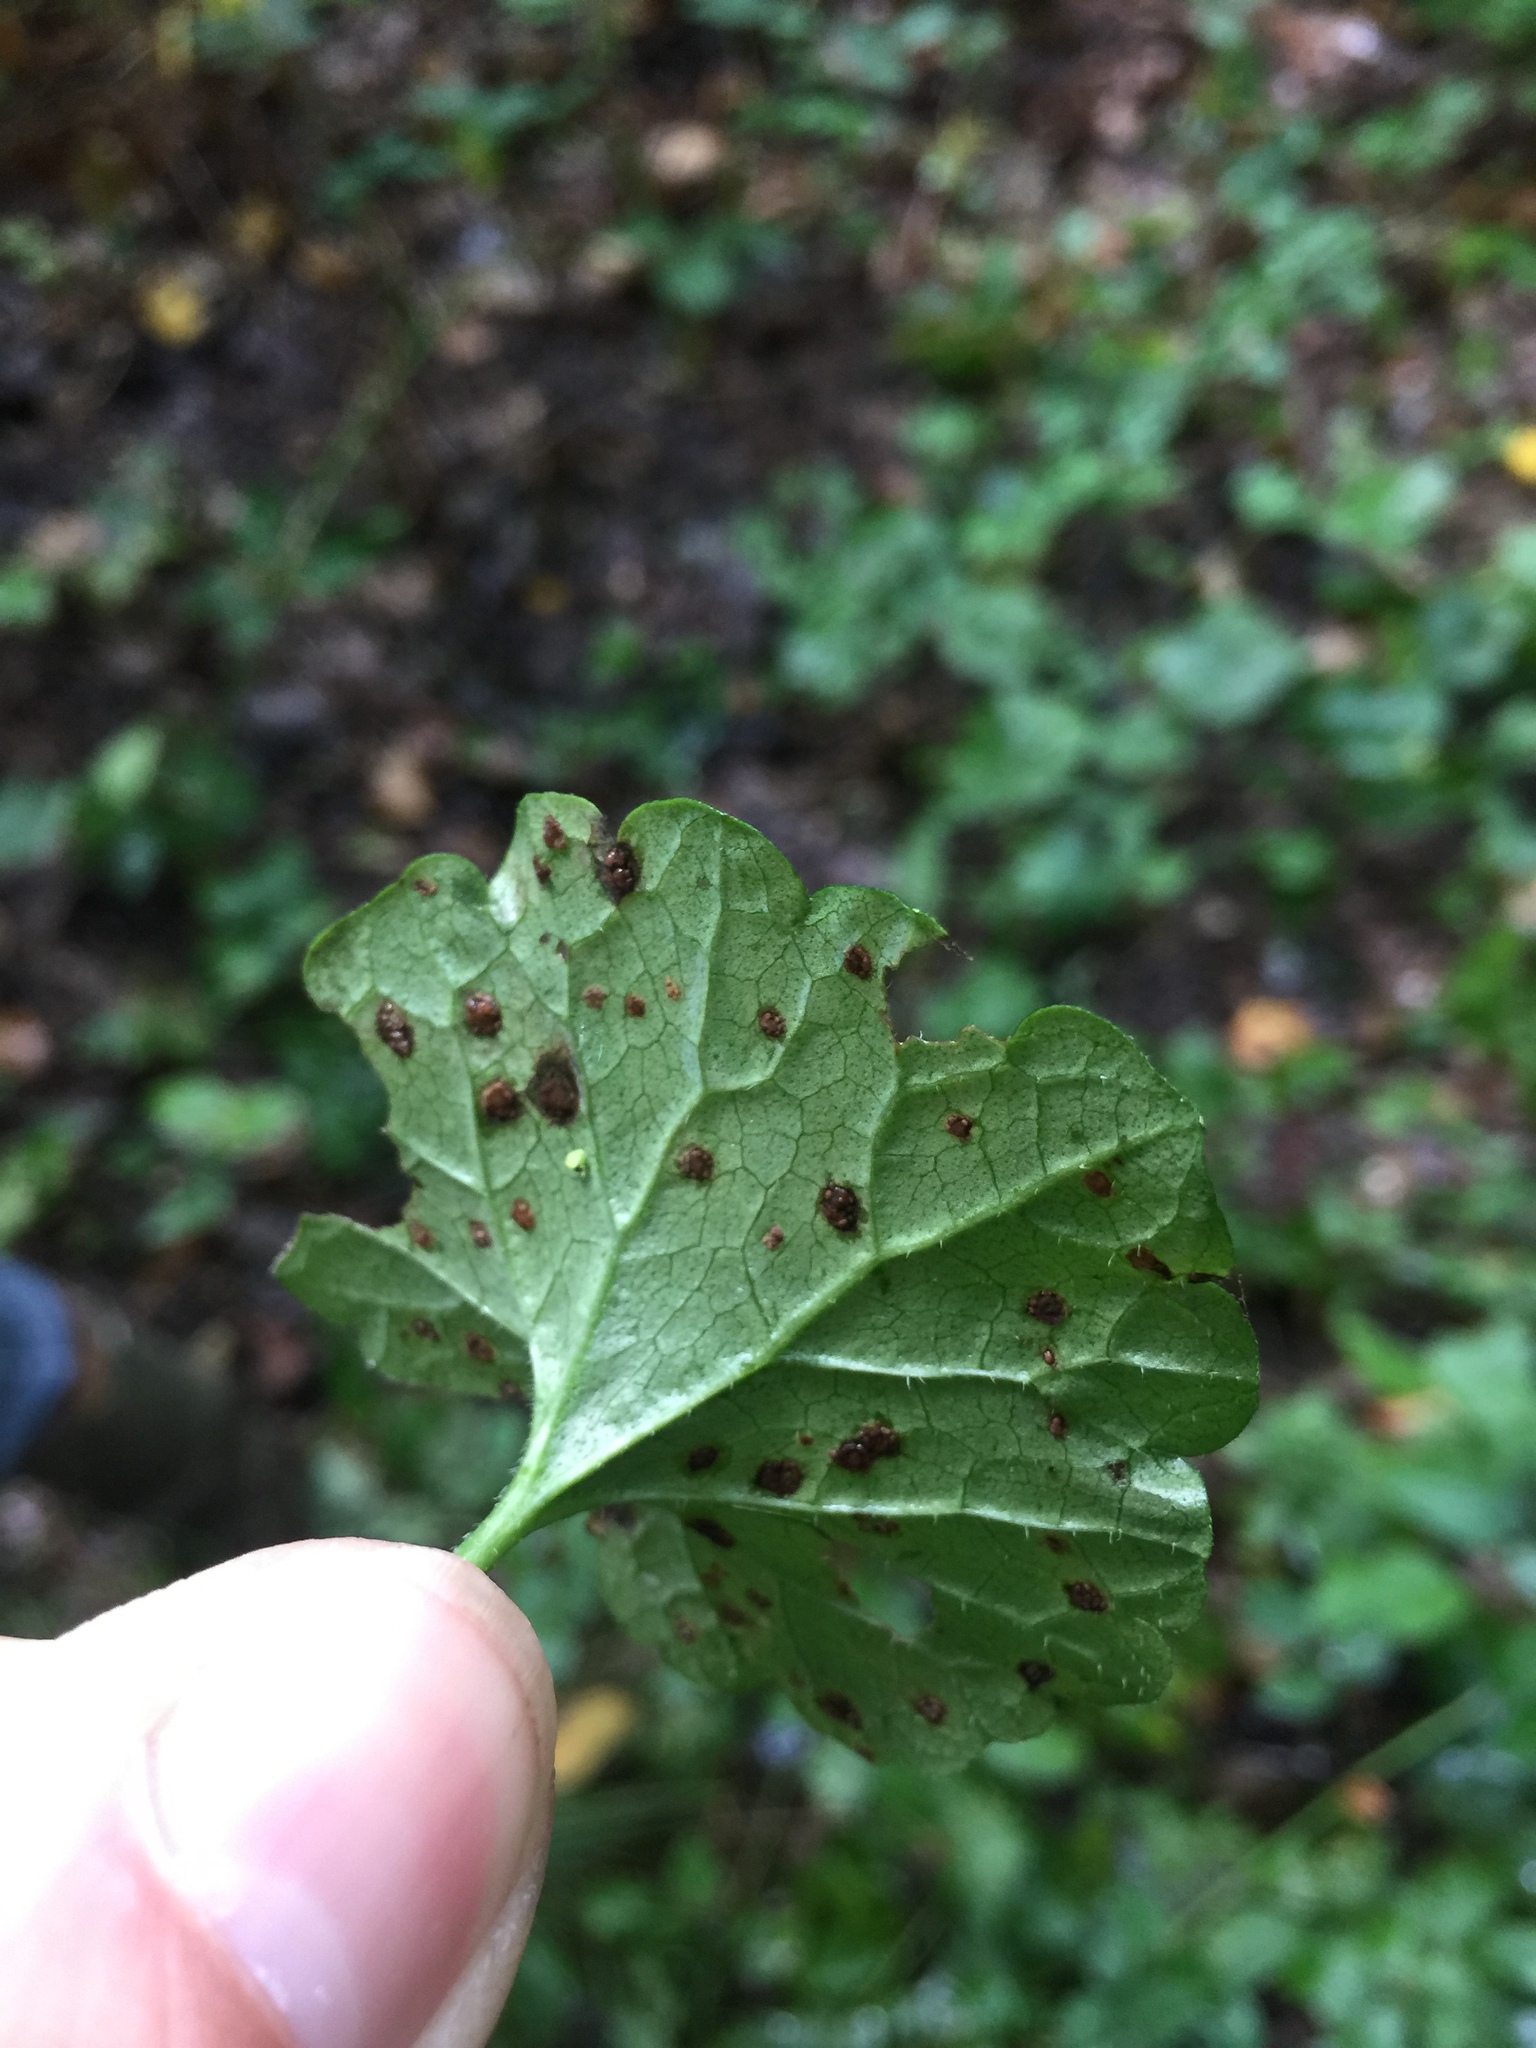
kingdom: Fungi
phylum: Basidiomycota
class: Pucciniomycetes
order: Pucciniales
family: Pucciniaceae
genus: Puccinia
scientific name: Puccinia glechomatis
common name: Ground ivy rust
